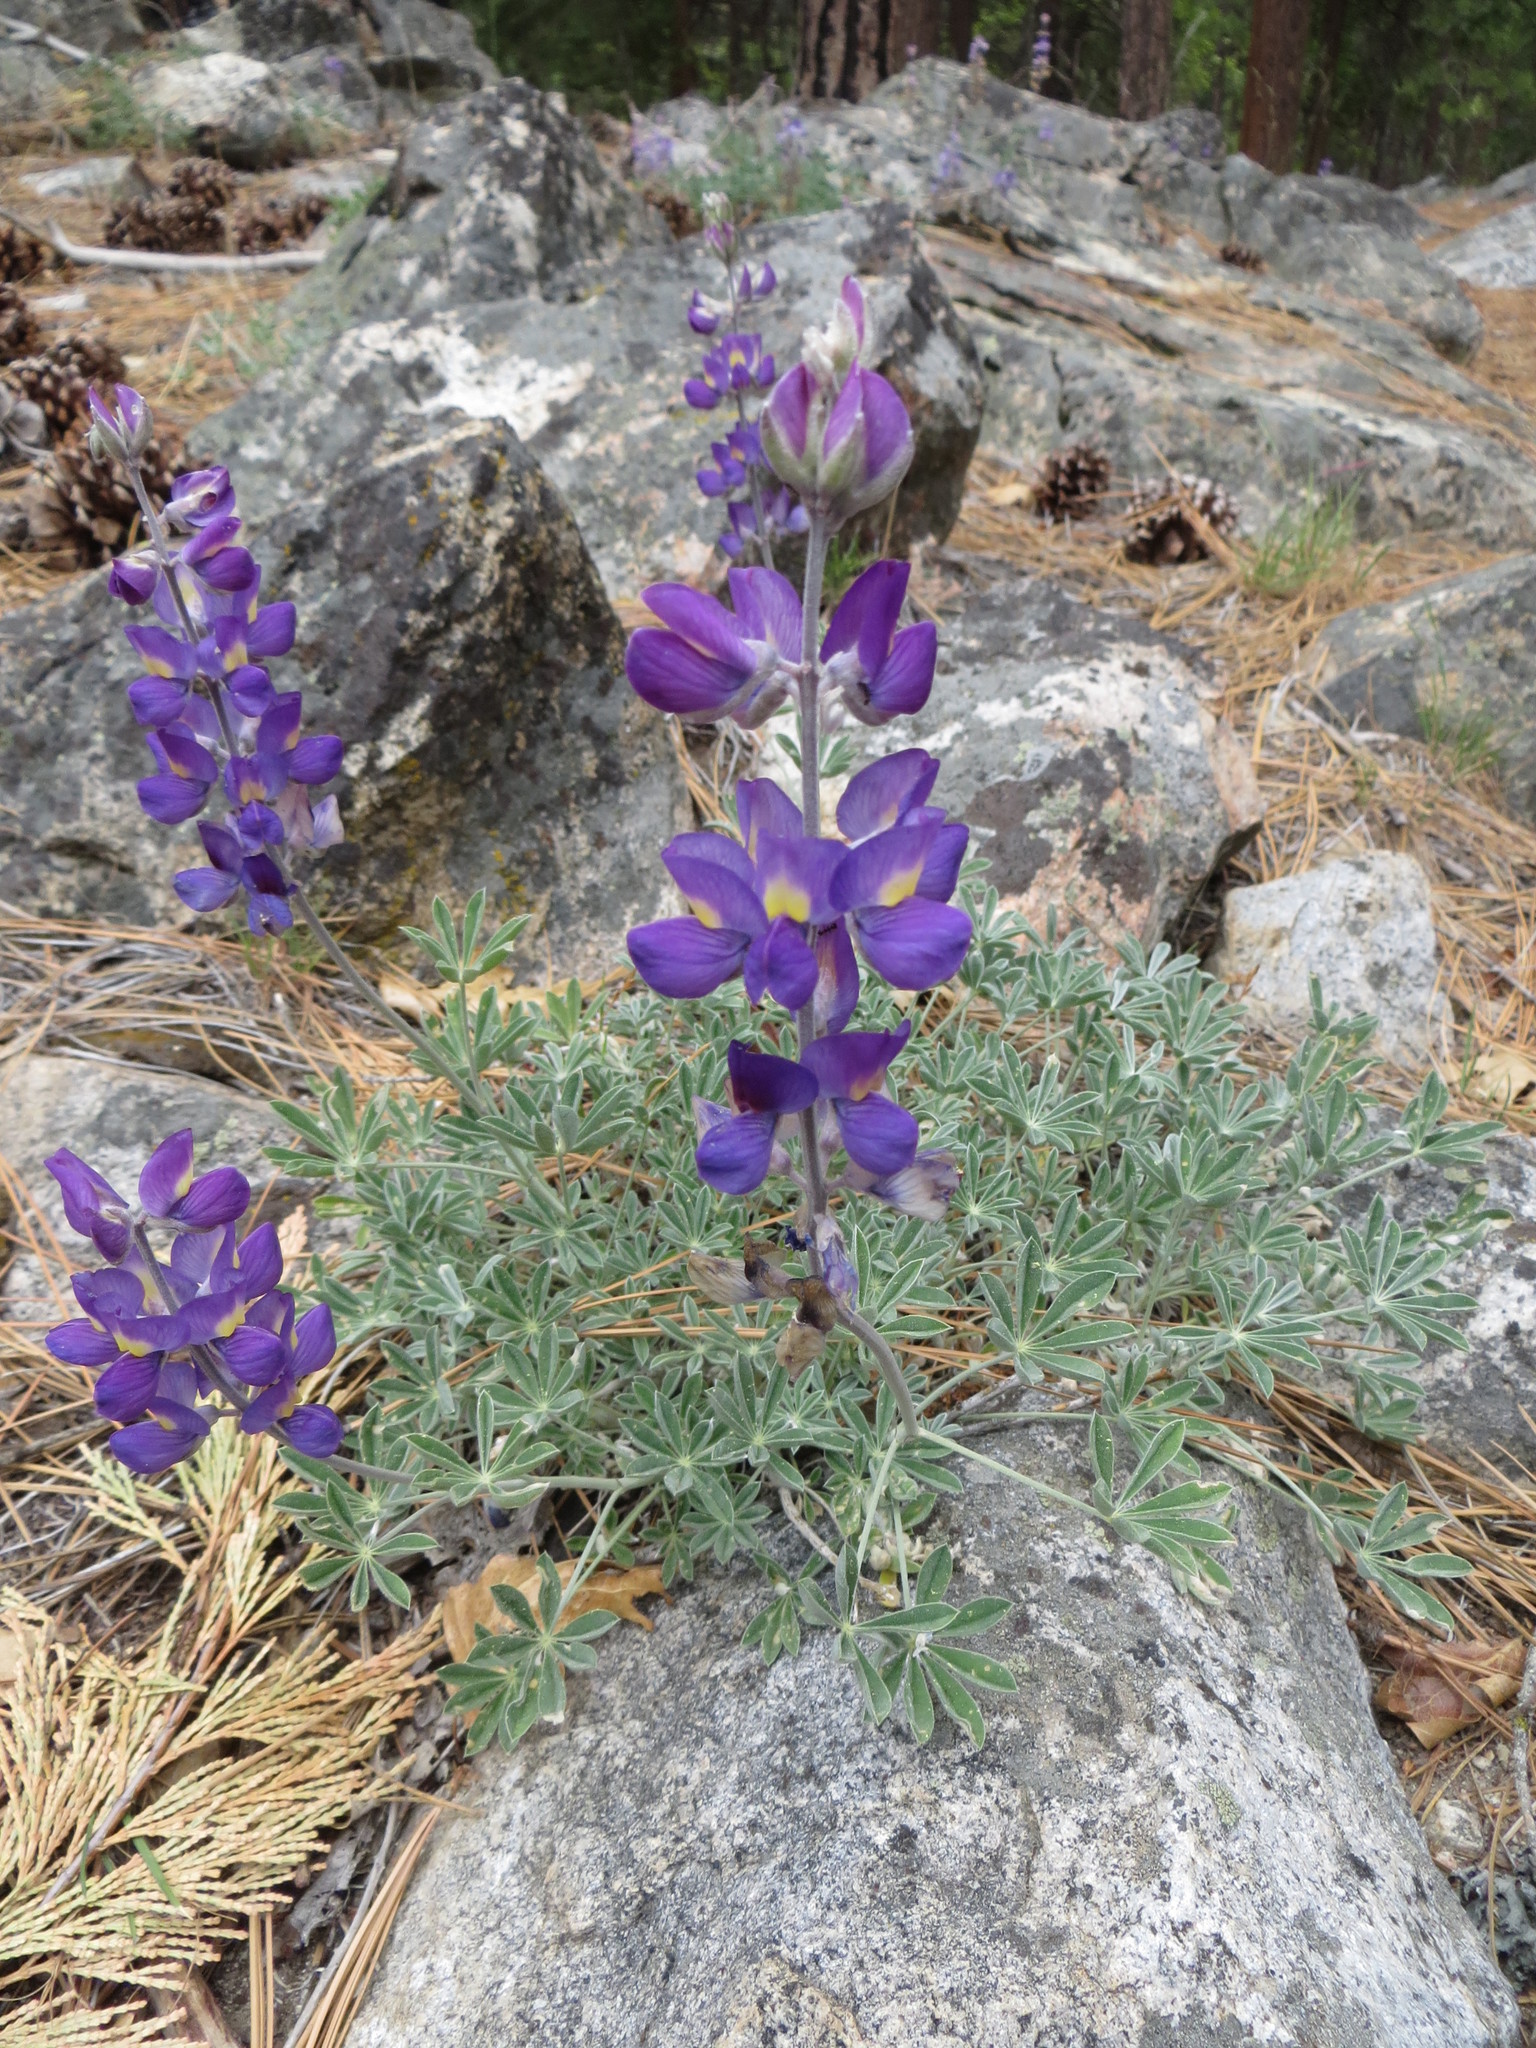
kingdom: Plantae
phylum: Tracheophyta
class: Magnoliopsida
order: Fabales
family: Fabaceae
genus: Lupinus
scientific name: Lupinus grayi
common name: Sierra lupine
